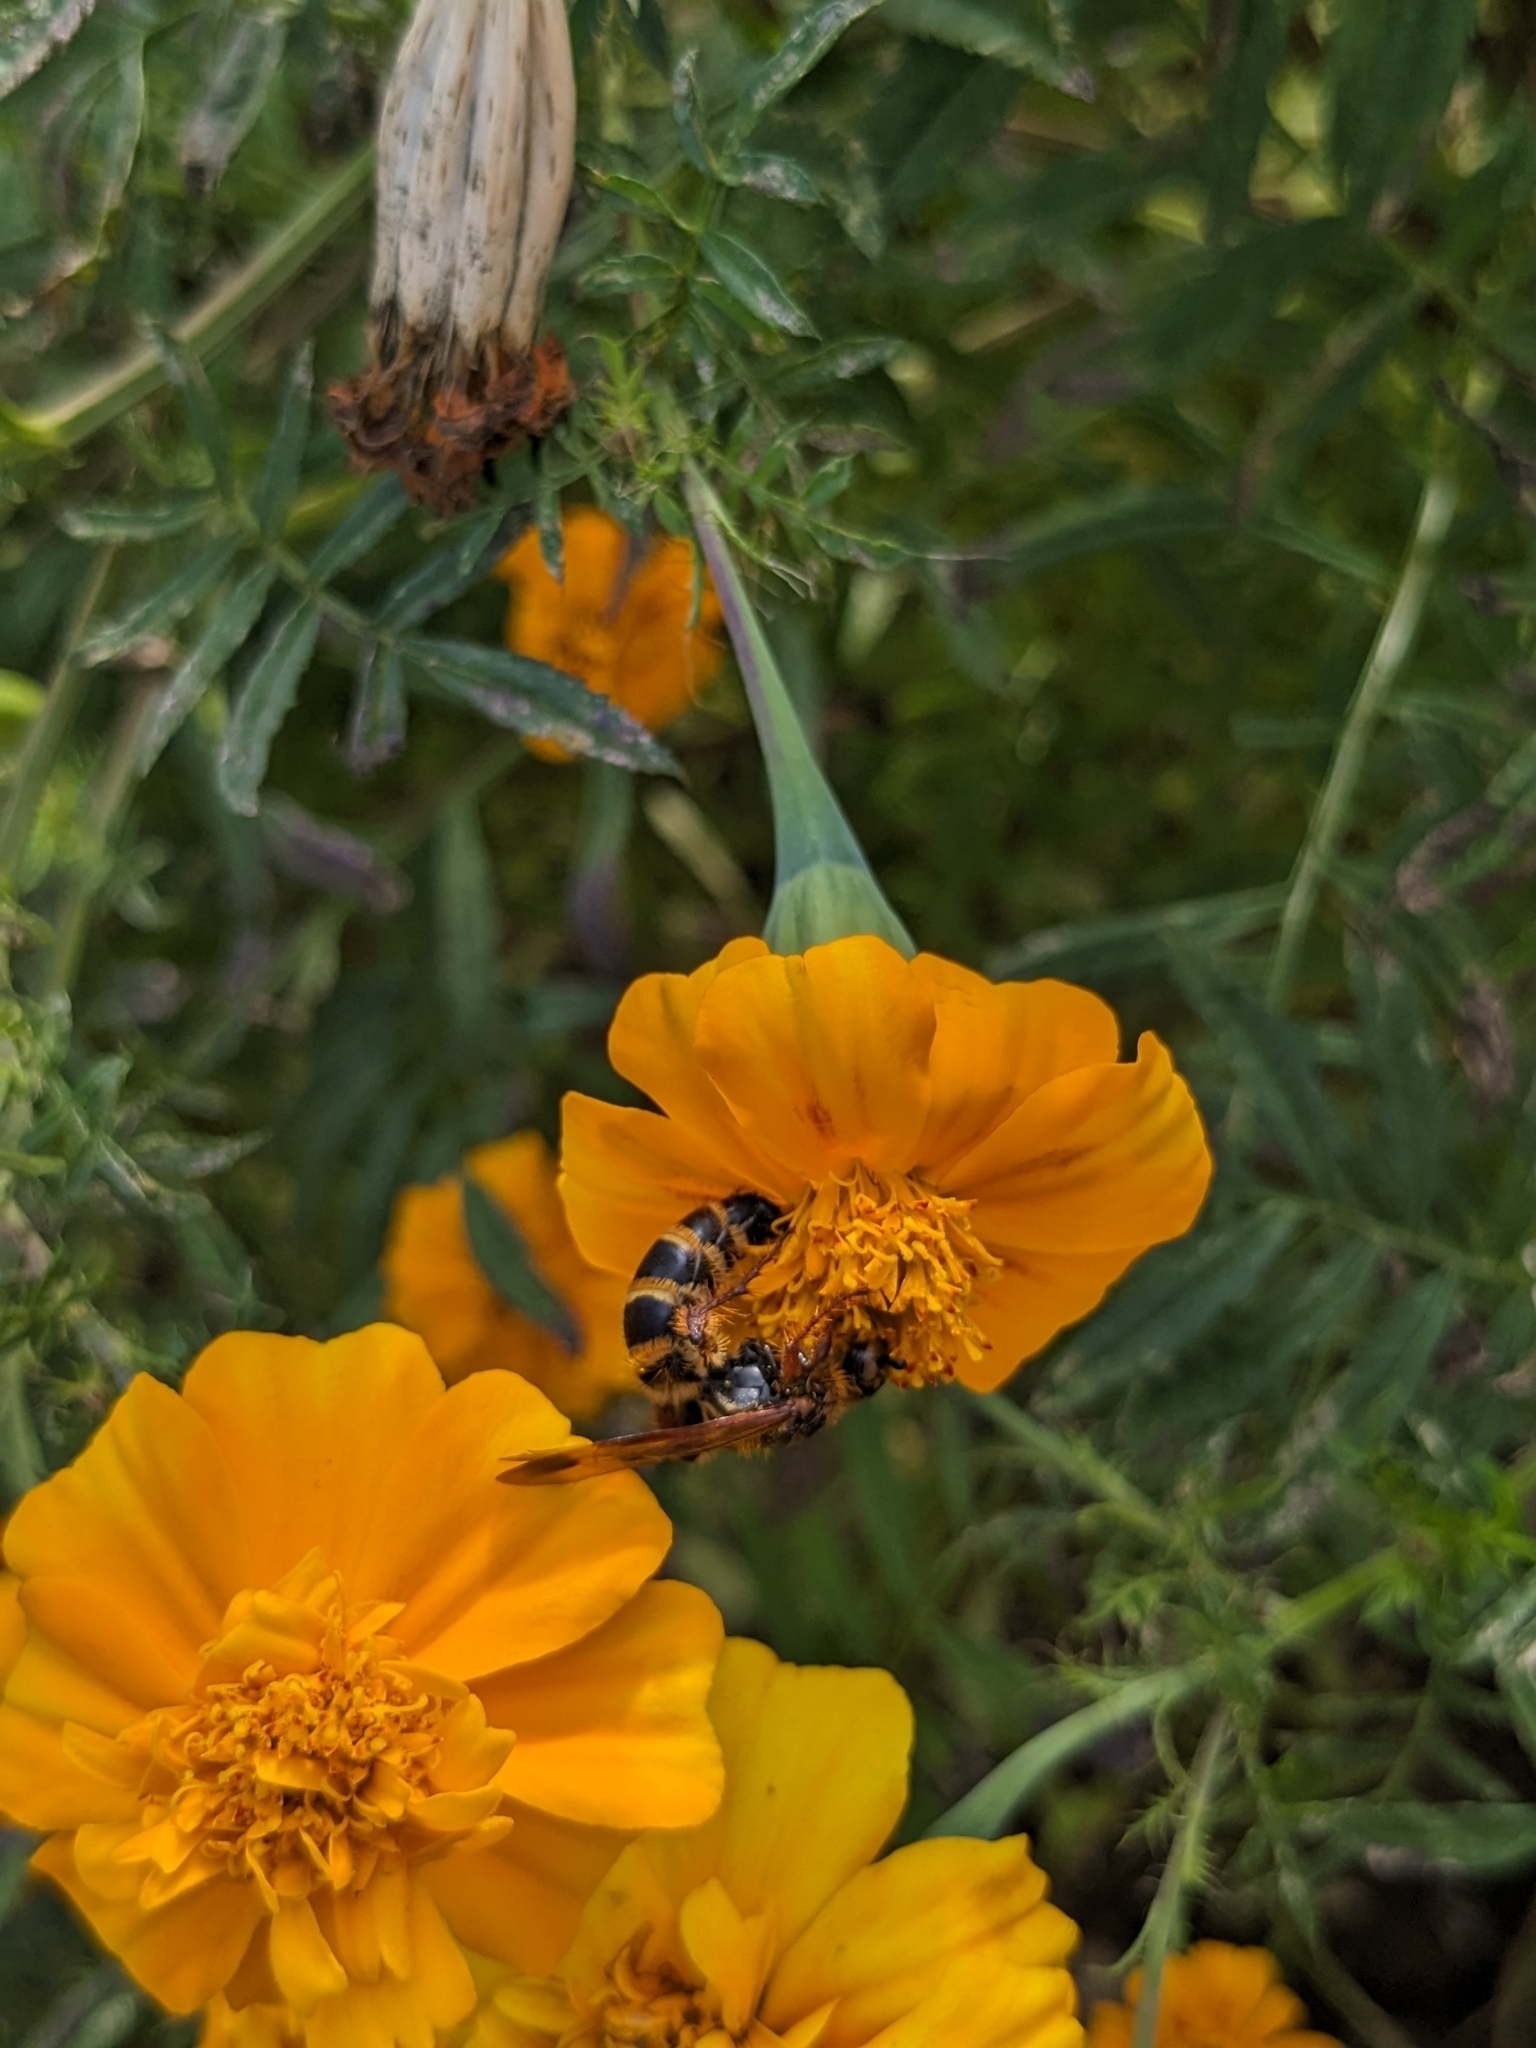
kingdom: Animalia
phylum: Arthropoda
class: Insecta
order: Hymenoptera
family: Scoliidae
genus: Campsomeris
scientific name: Campsomeris phalerata
